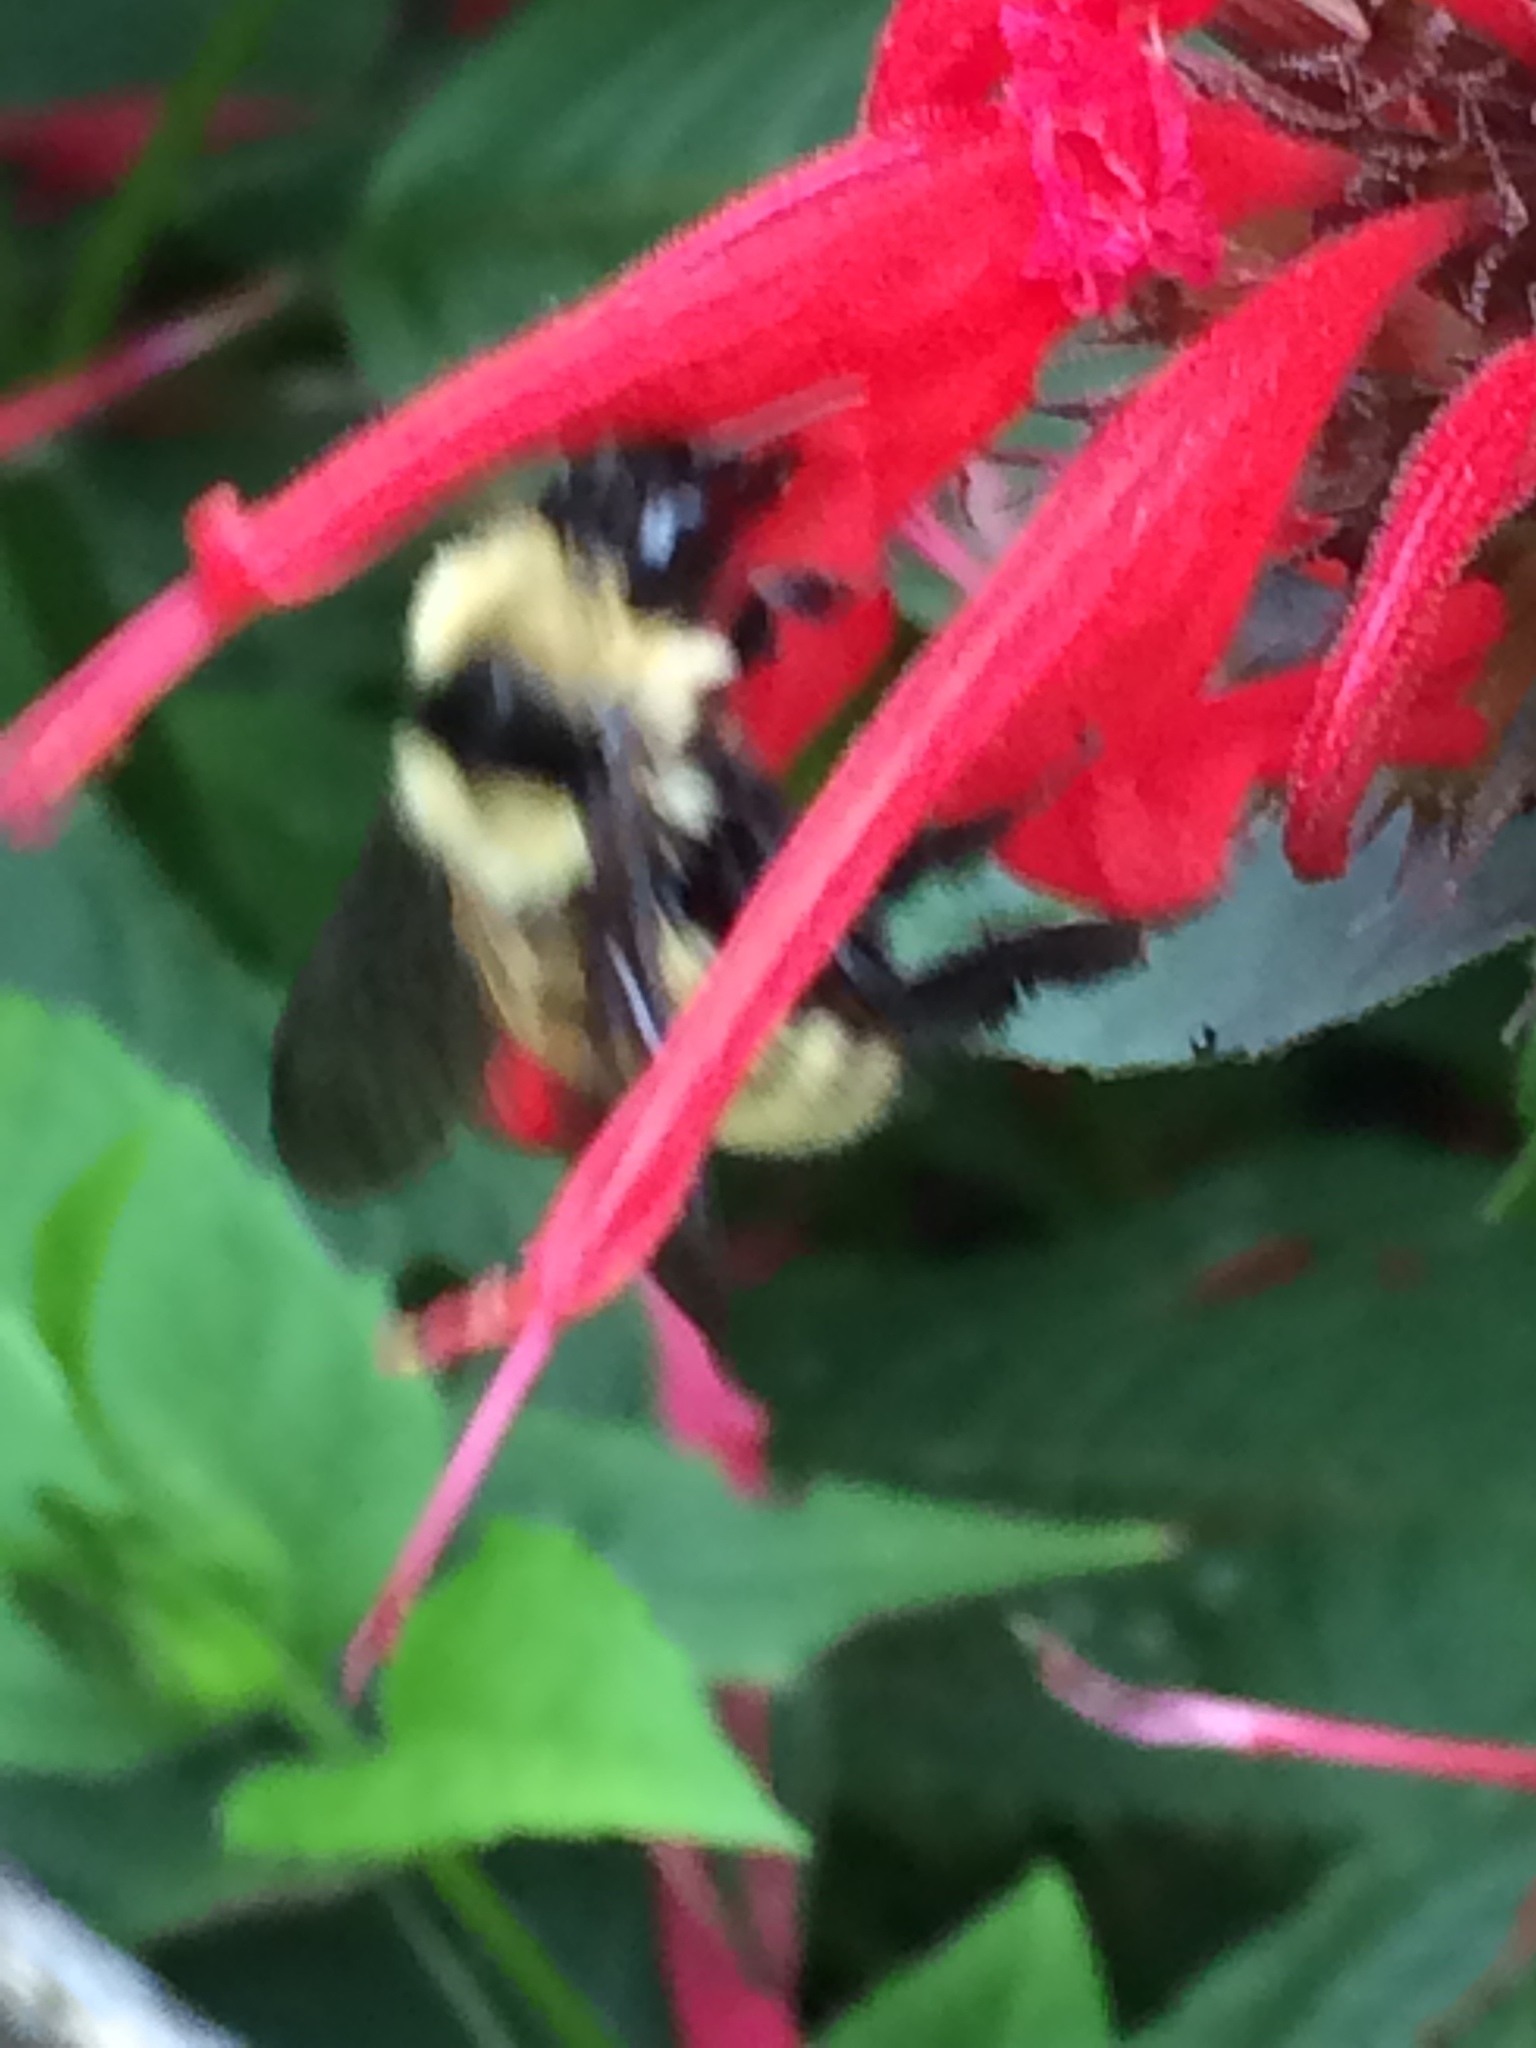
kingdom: Animalia
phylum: Arthropoda
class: Insecta
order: Hymenoptera
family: Apidae
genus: Bombus
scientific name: Bombus fervidus
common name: Yellow bumble bee
